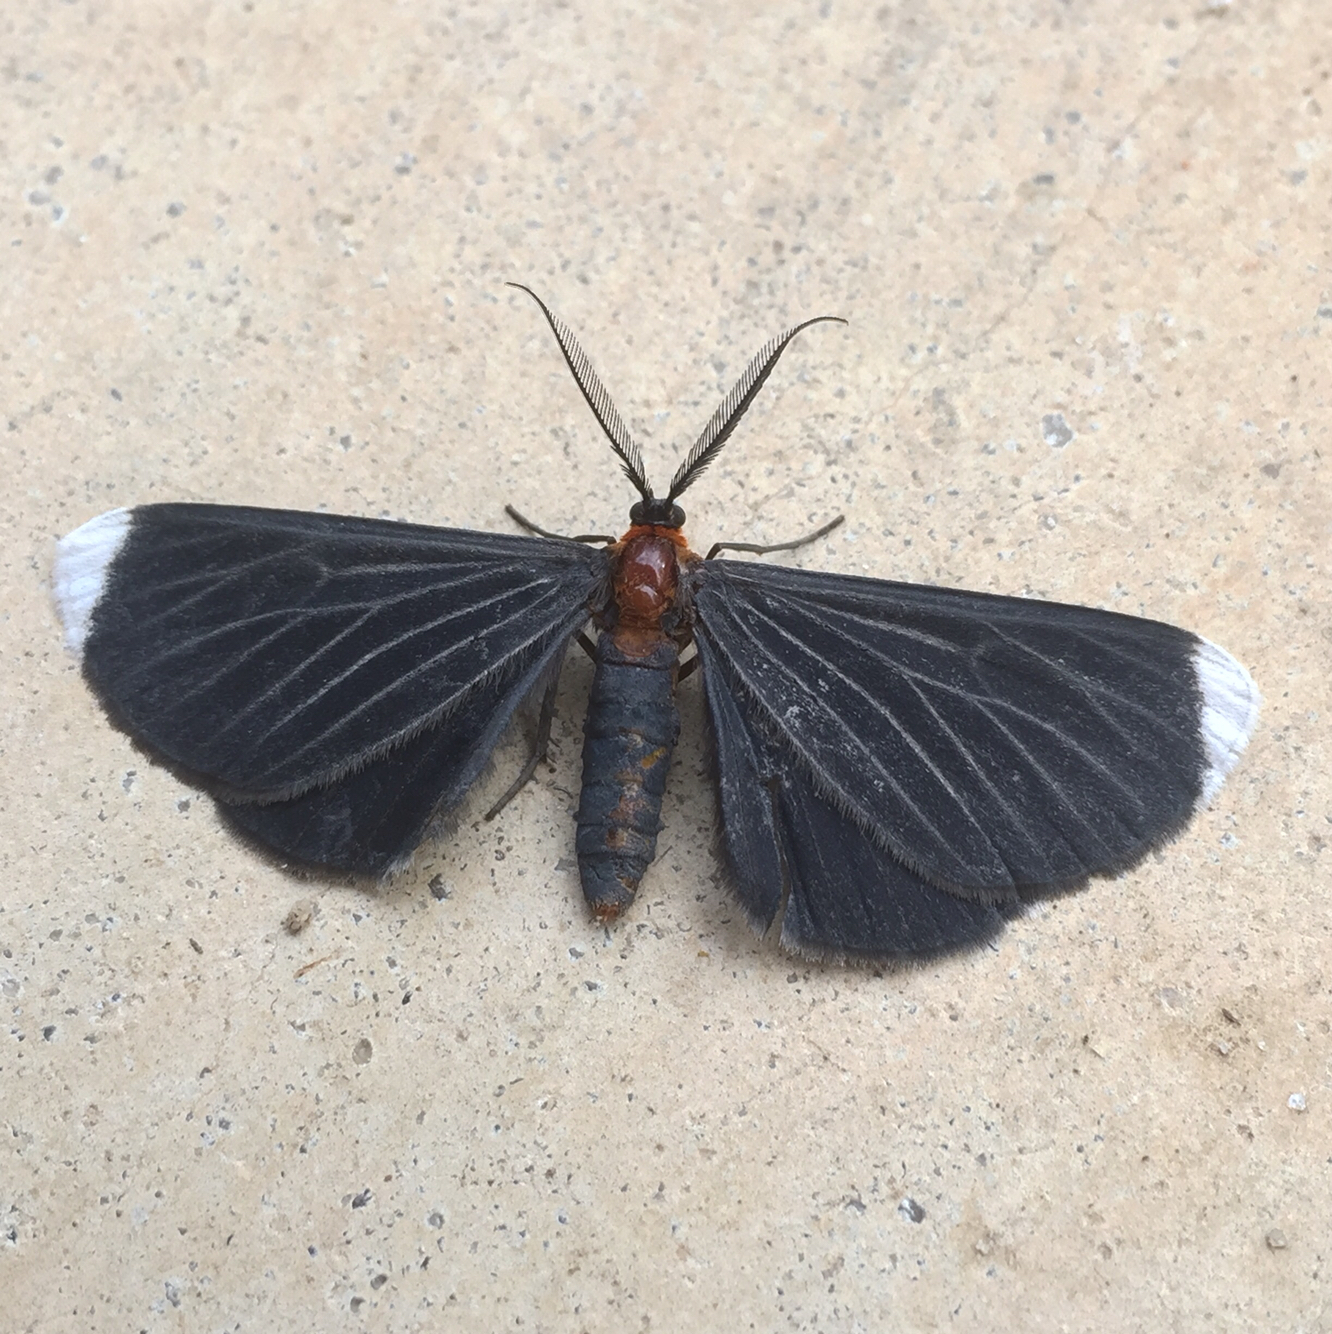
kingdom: Animalia
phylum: Arthropoda
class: Insecta
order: Lepidoptera
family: Geometridae
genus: Melanchroia
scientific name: Melanchroia chephise
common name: White-tipped black
